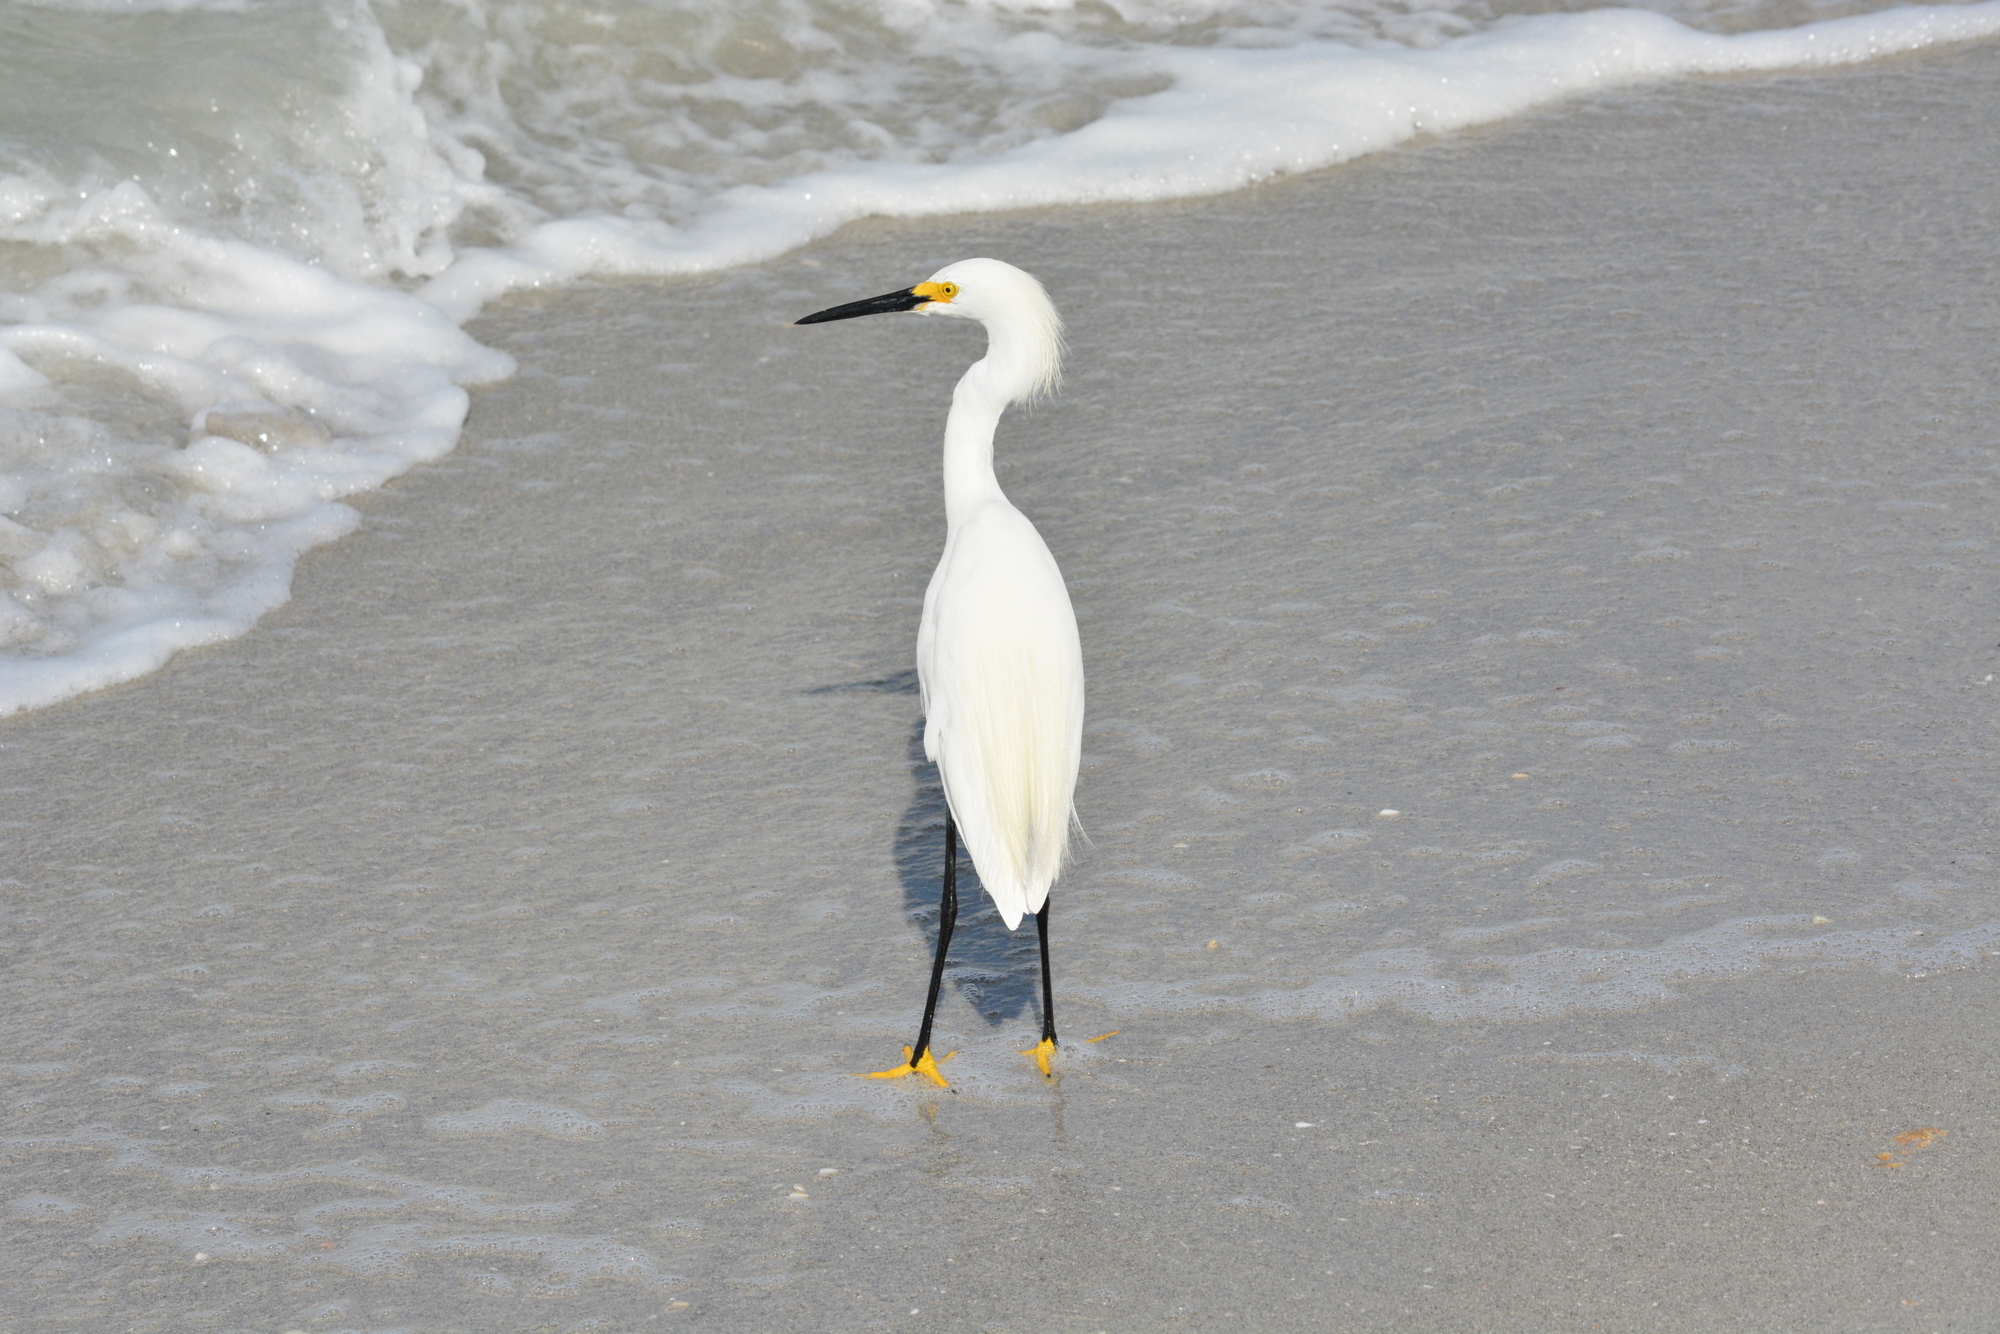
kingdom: Animalia
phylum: Chordata
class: Aves
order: Pelecaniformes
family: Ardeidae
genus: Egretta
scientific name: Egretta thula
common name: Snowy egret
